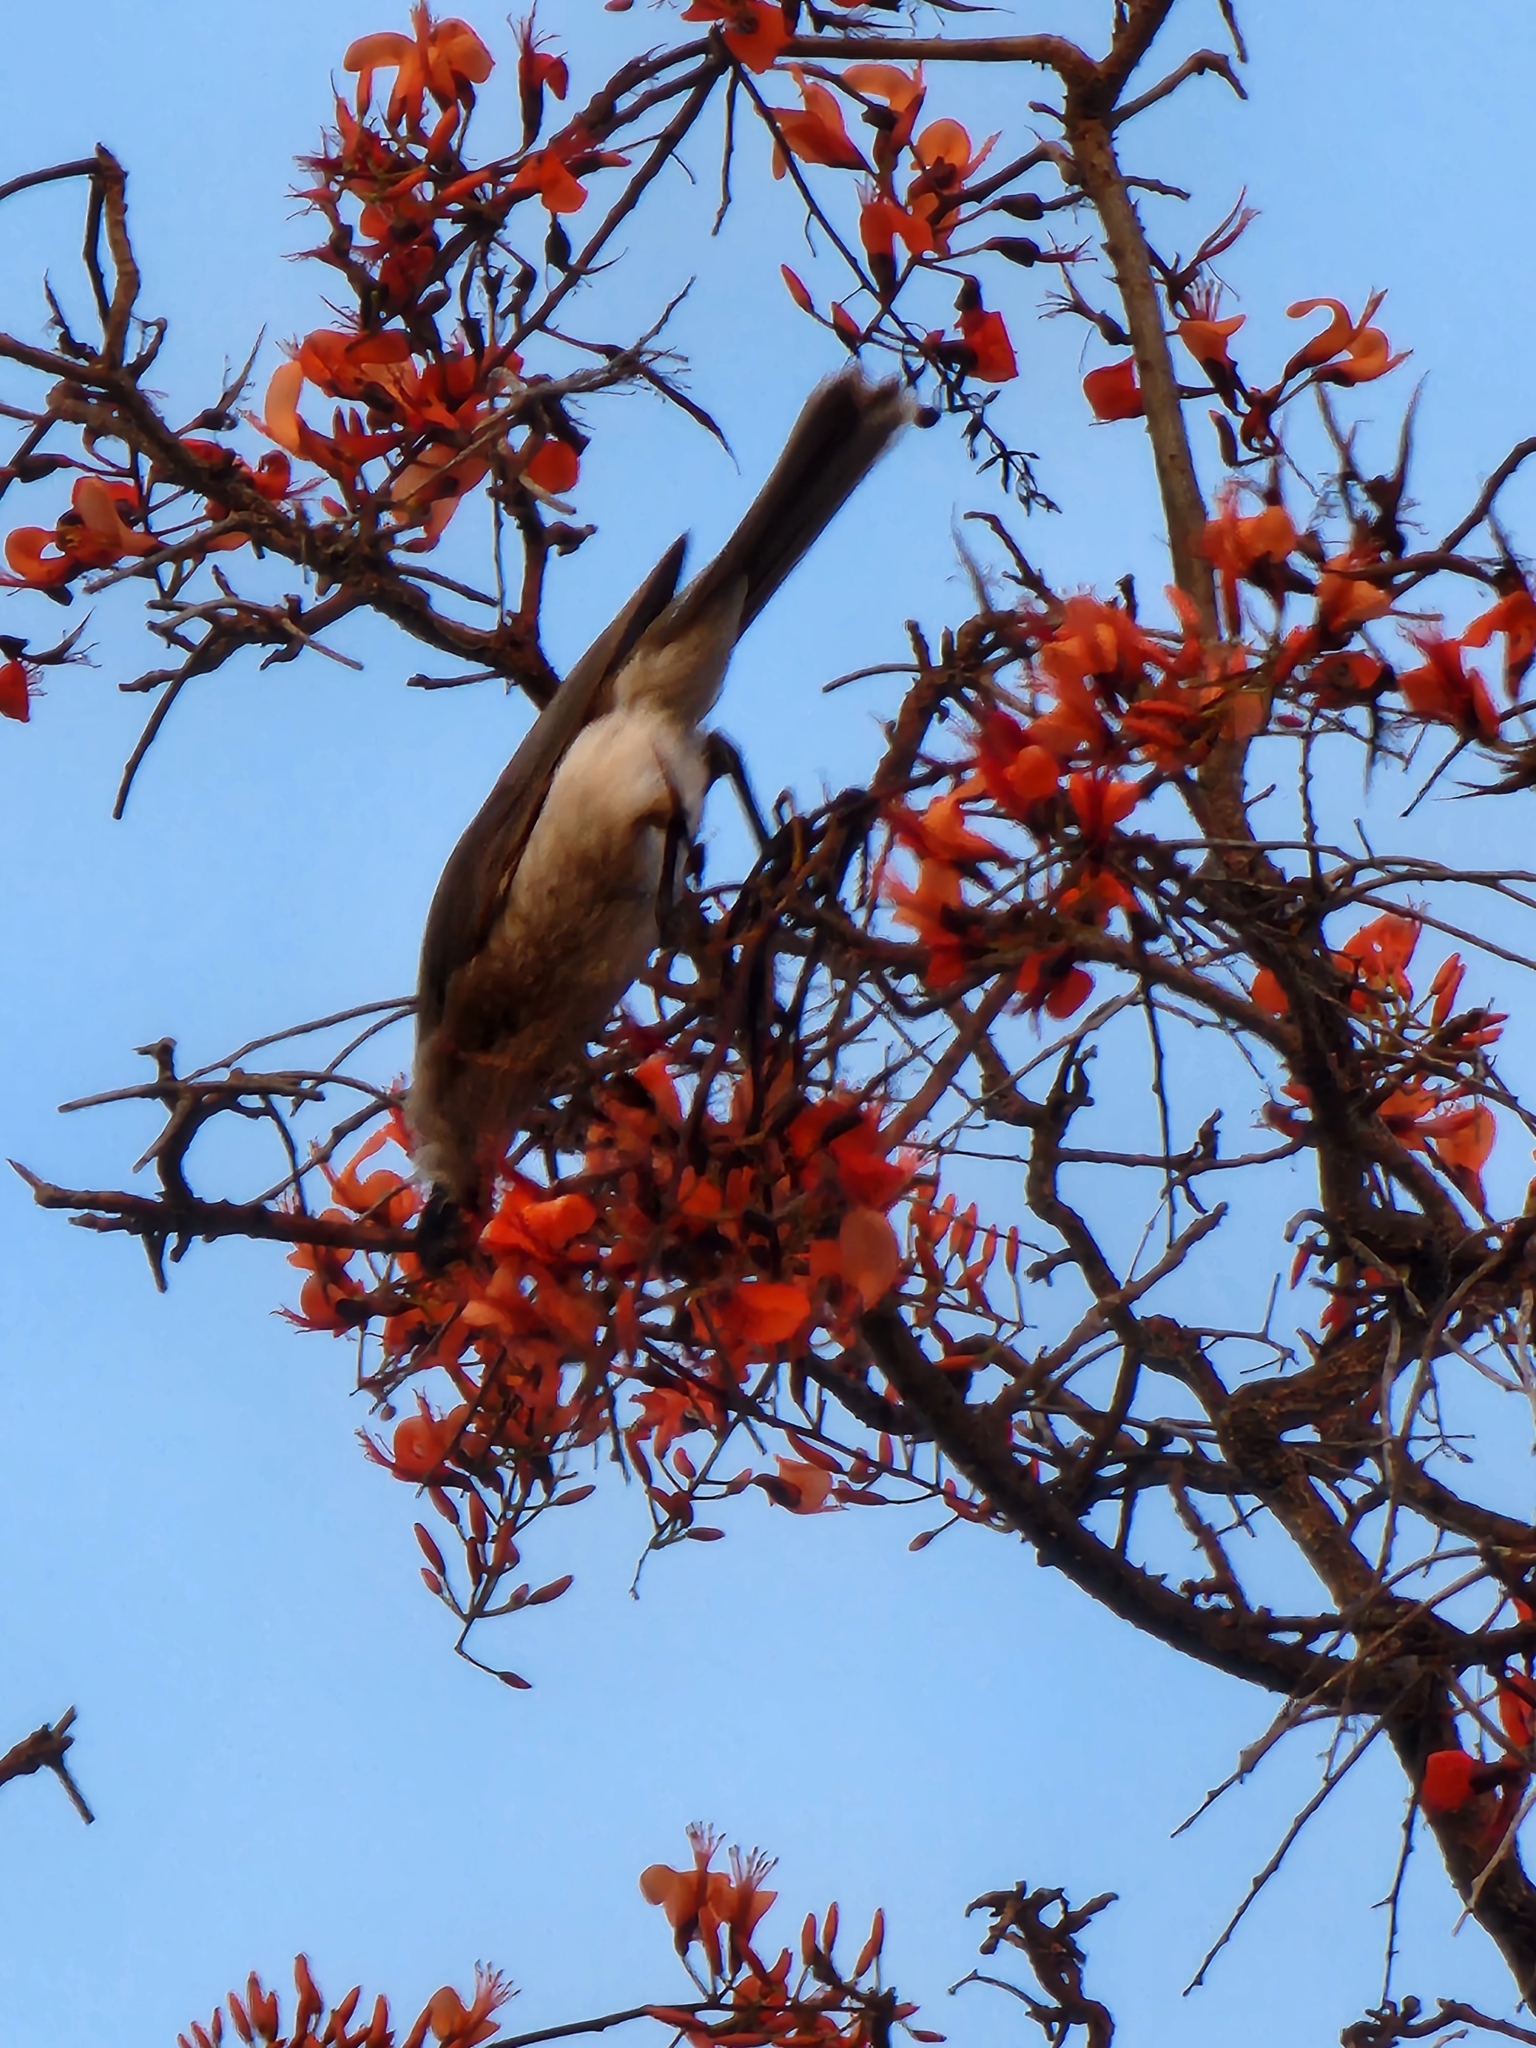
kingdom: Animalia
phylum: Chordata
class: Aves
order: Passeriformes
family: Meliphagidae
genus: Philemon
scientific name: Philemon corniculatus
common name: Noisy friarbird
